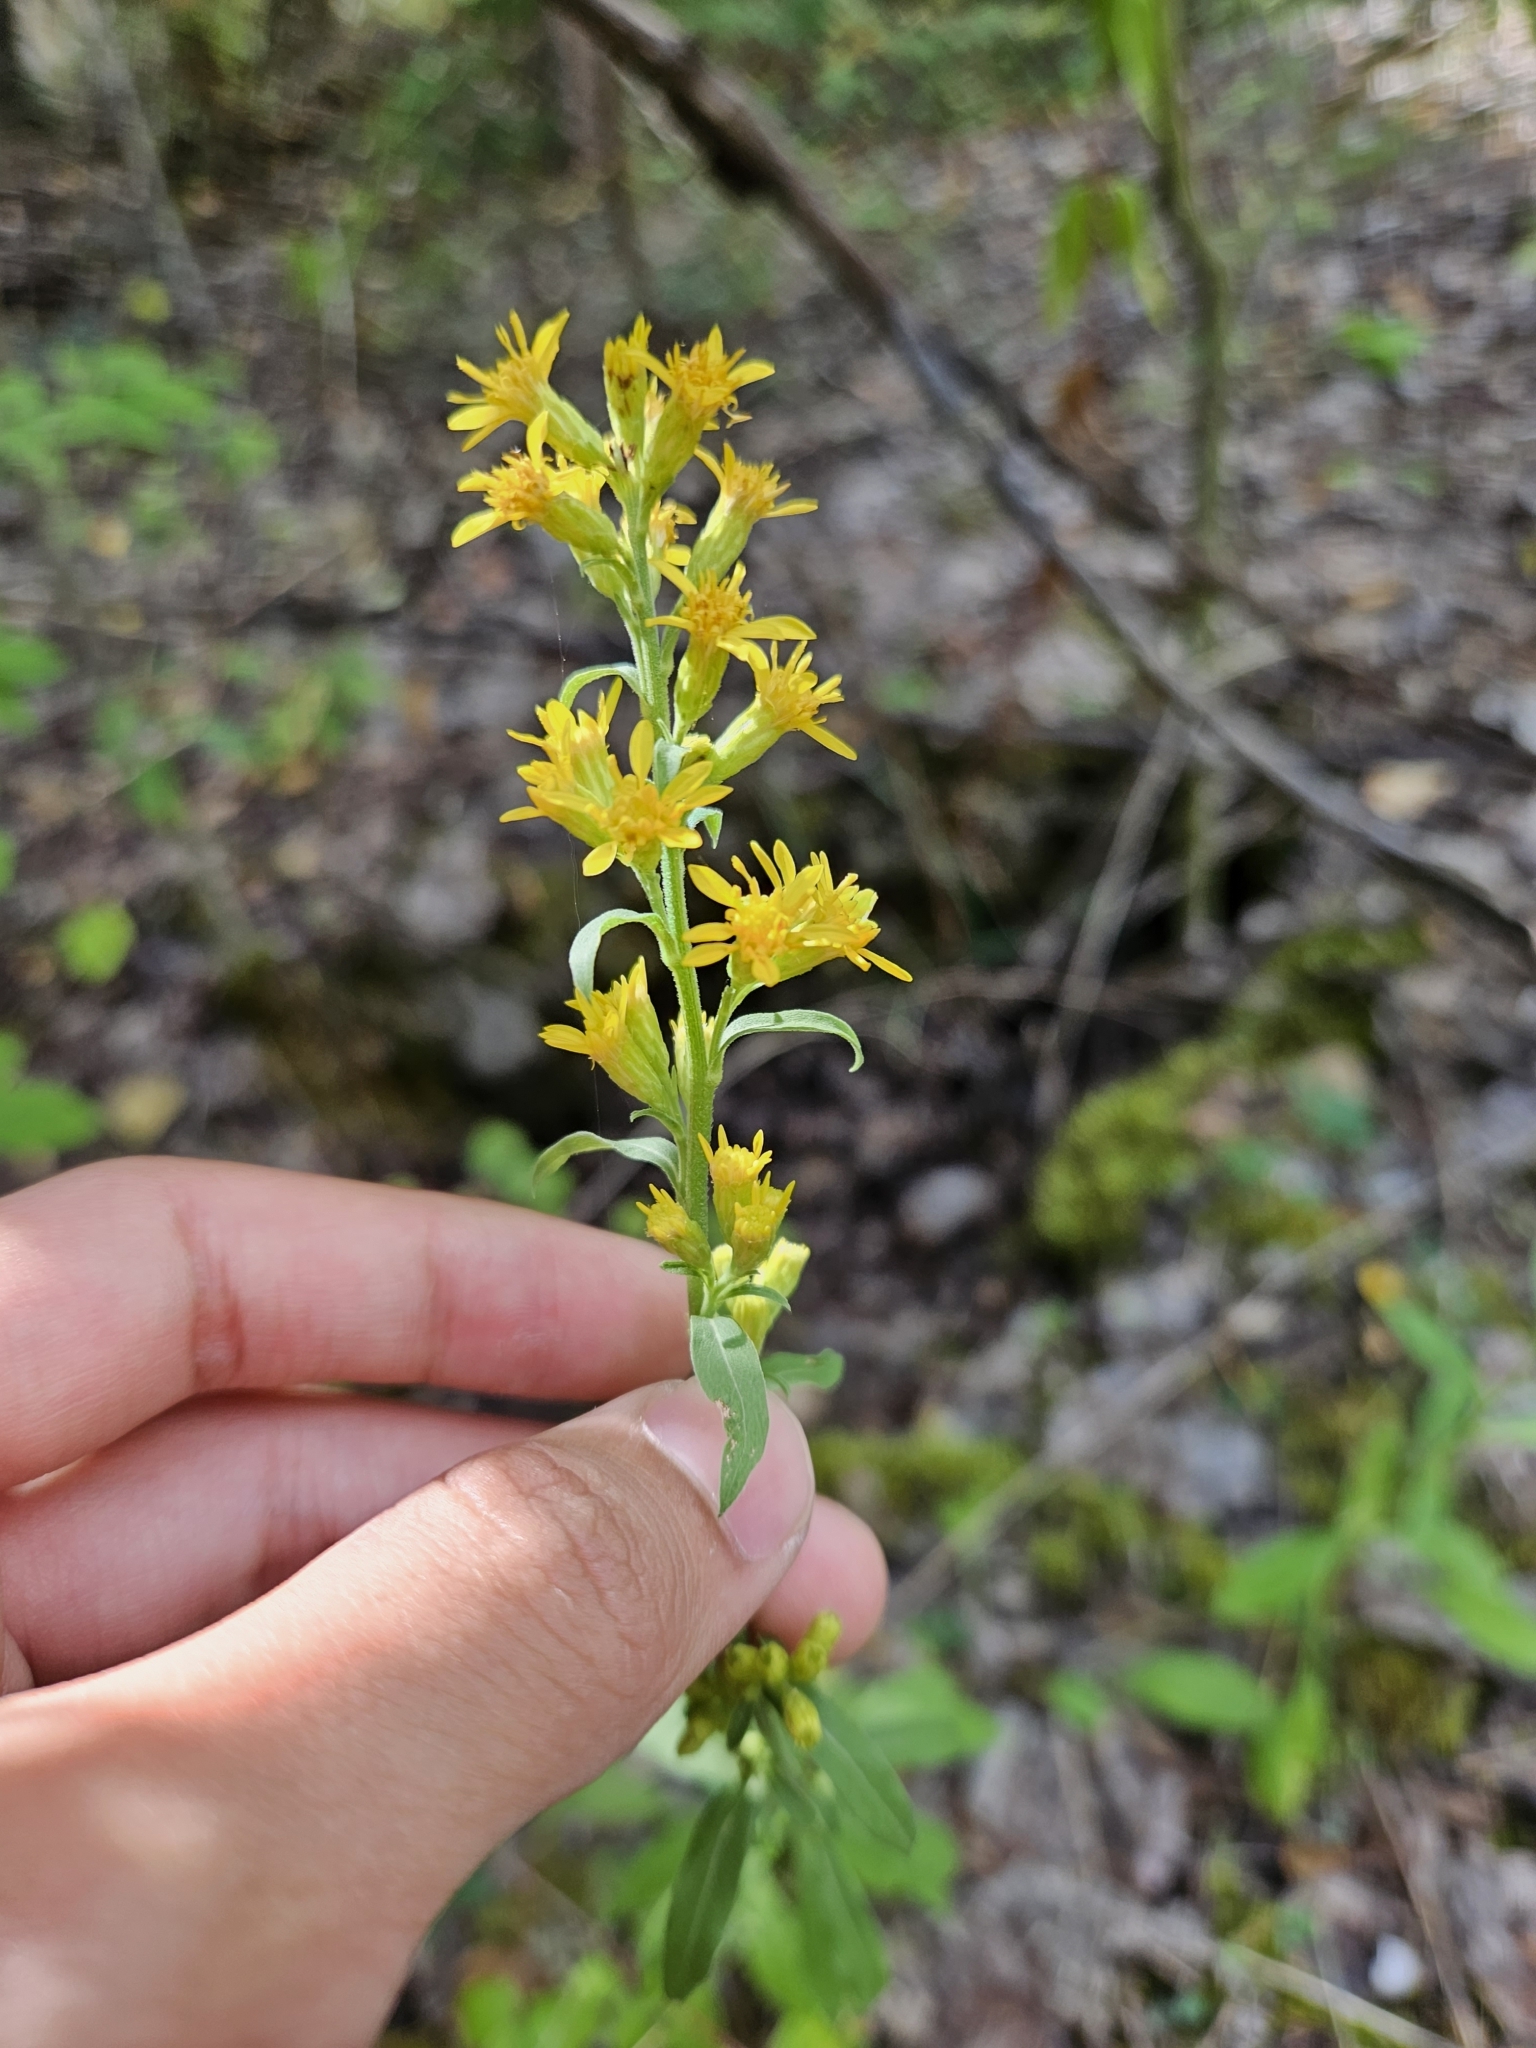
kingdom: Plantae
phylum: Tracheophyta
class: Magnoliopsida
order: Asterales
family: Asteraceae
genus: Solidago
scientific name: Solidago virgaurea
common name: Goldenrod
